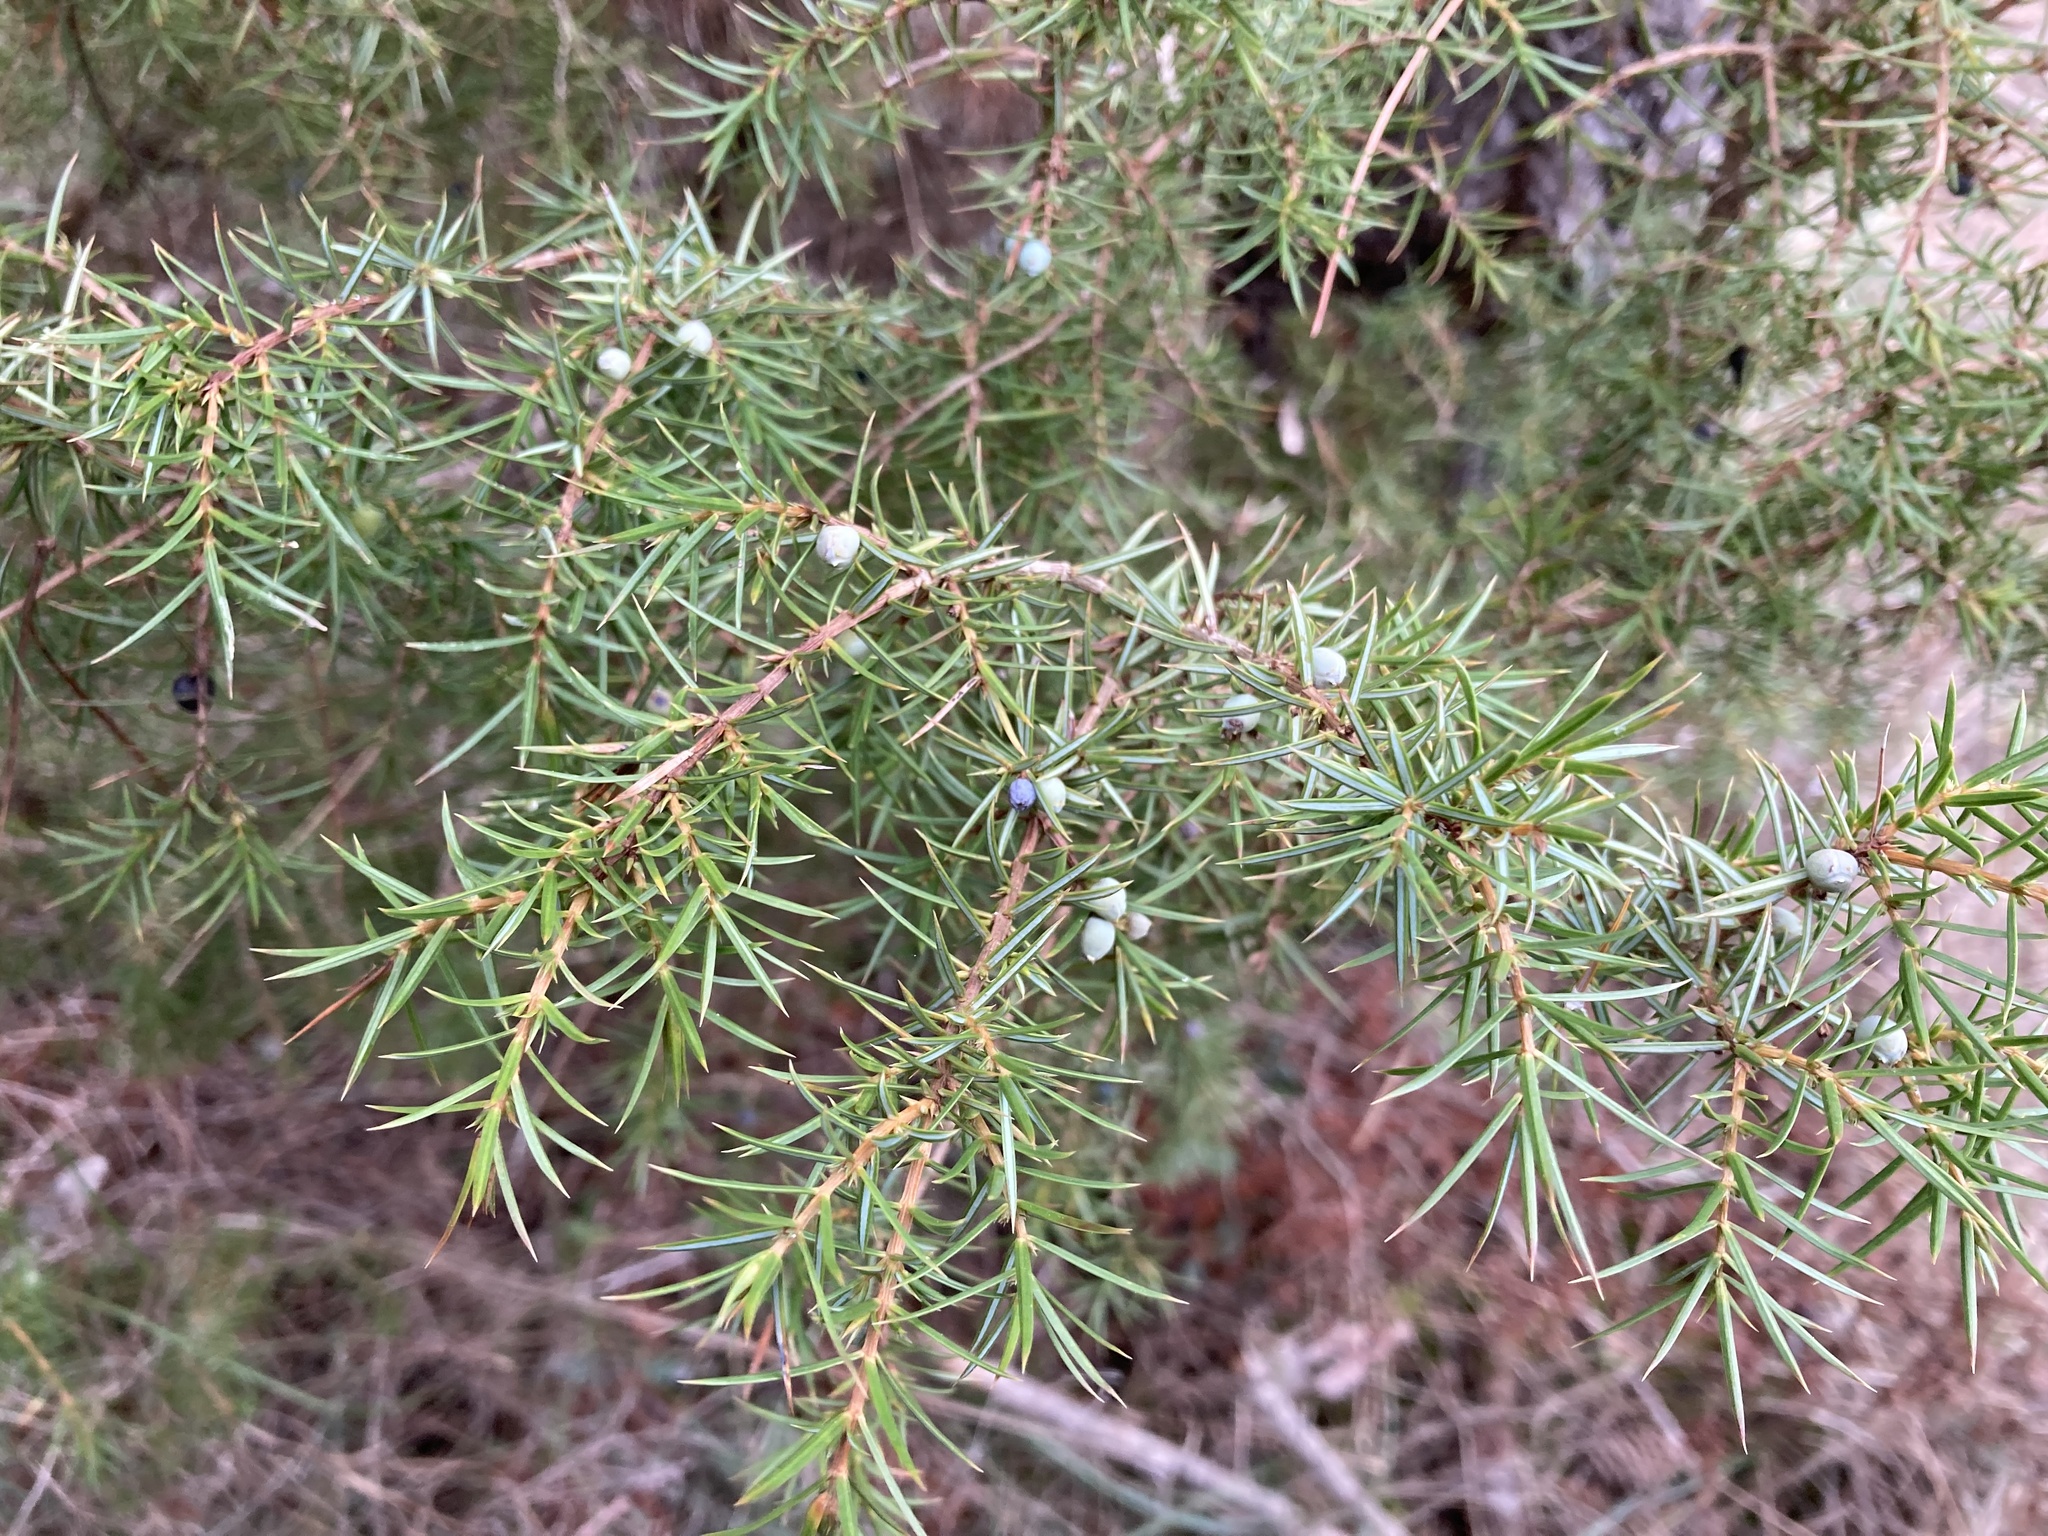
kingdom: Plantae
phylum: Tracheophyta
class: Pinopsida
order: Pinales
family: Cupressaceae
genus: Juniperus
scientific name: Juniperus communis
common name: Common juniper
